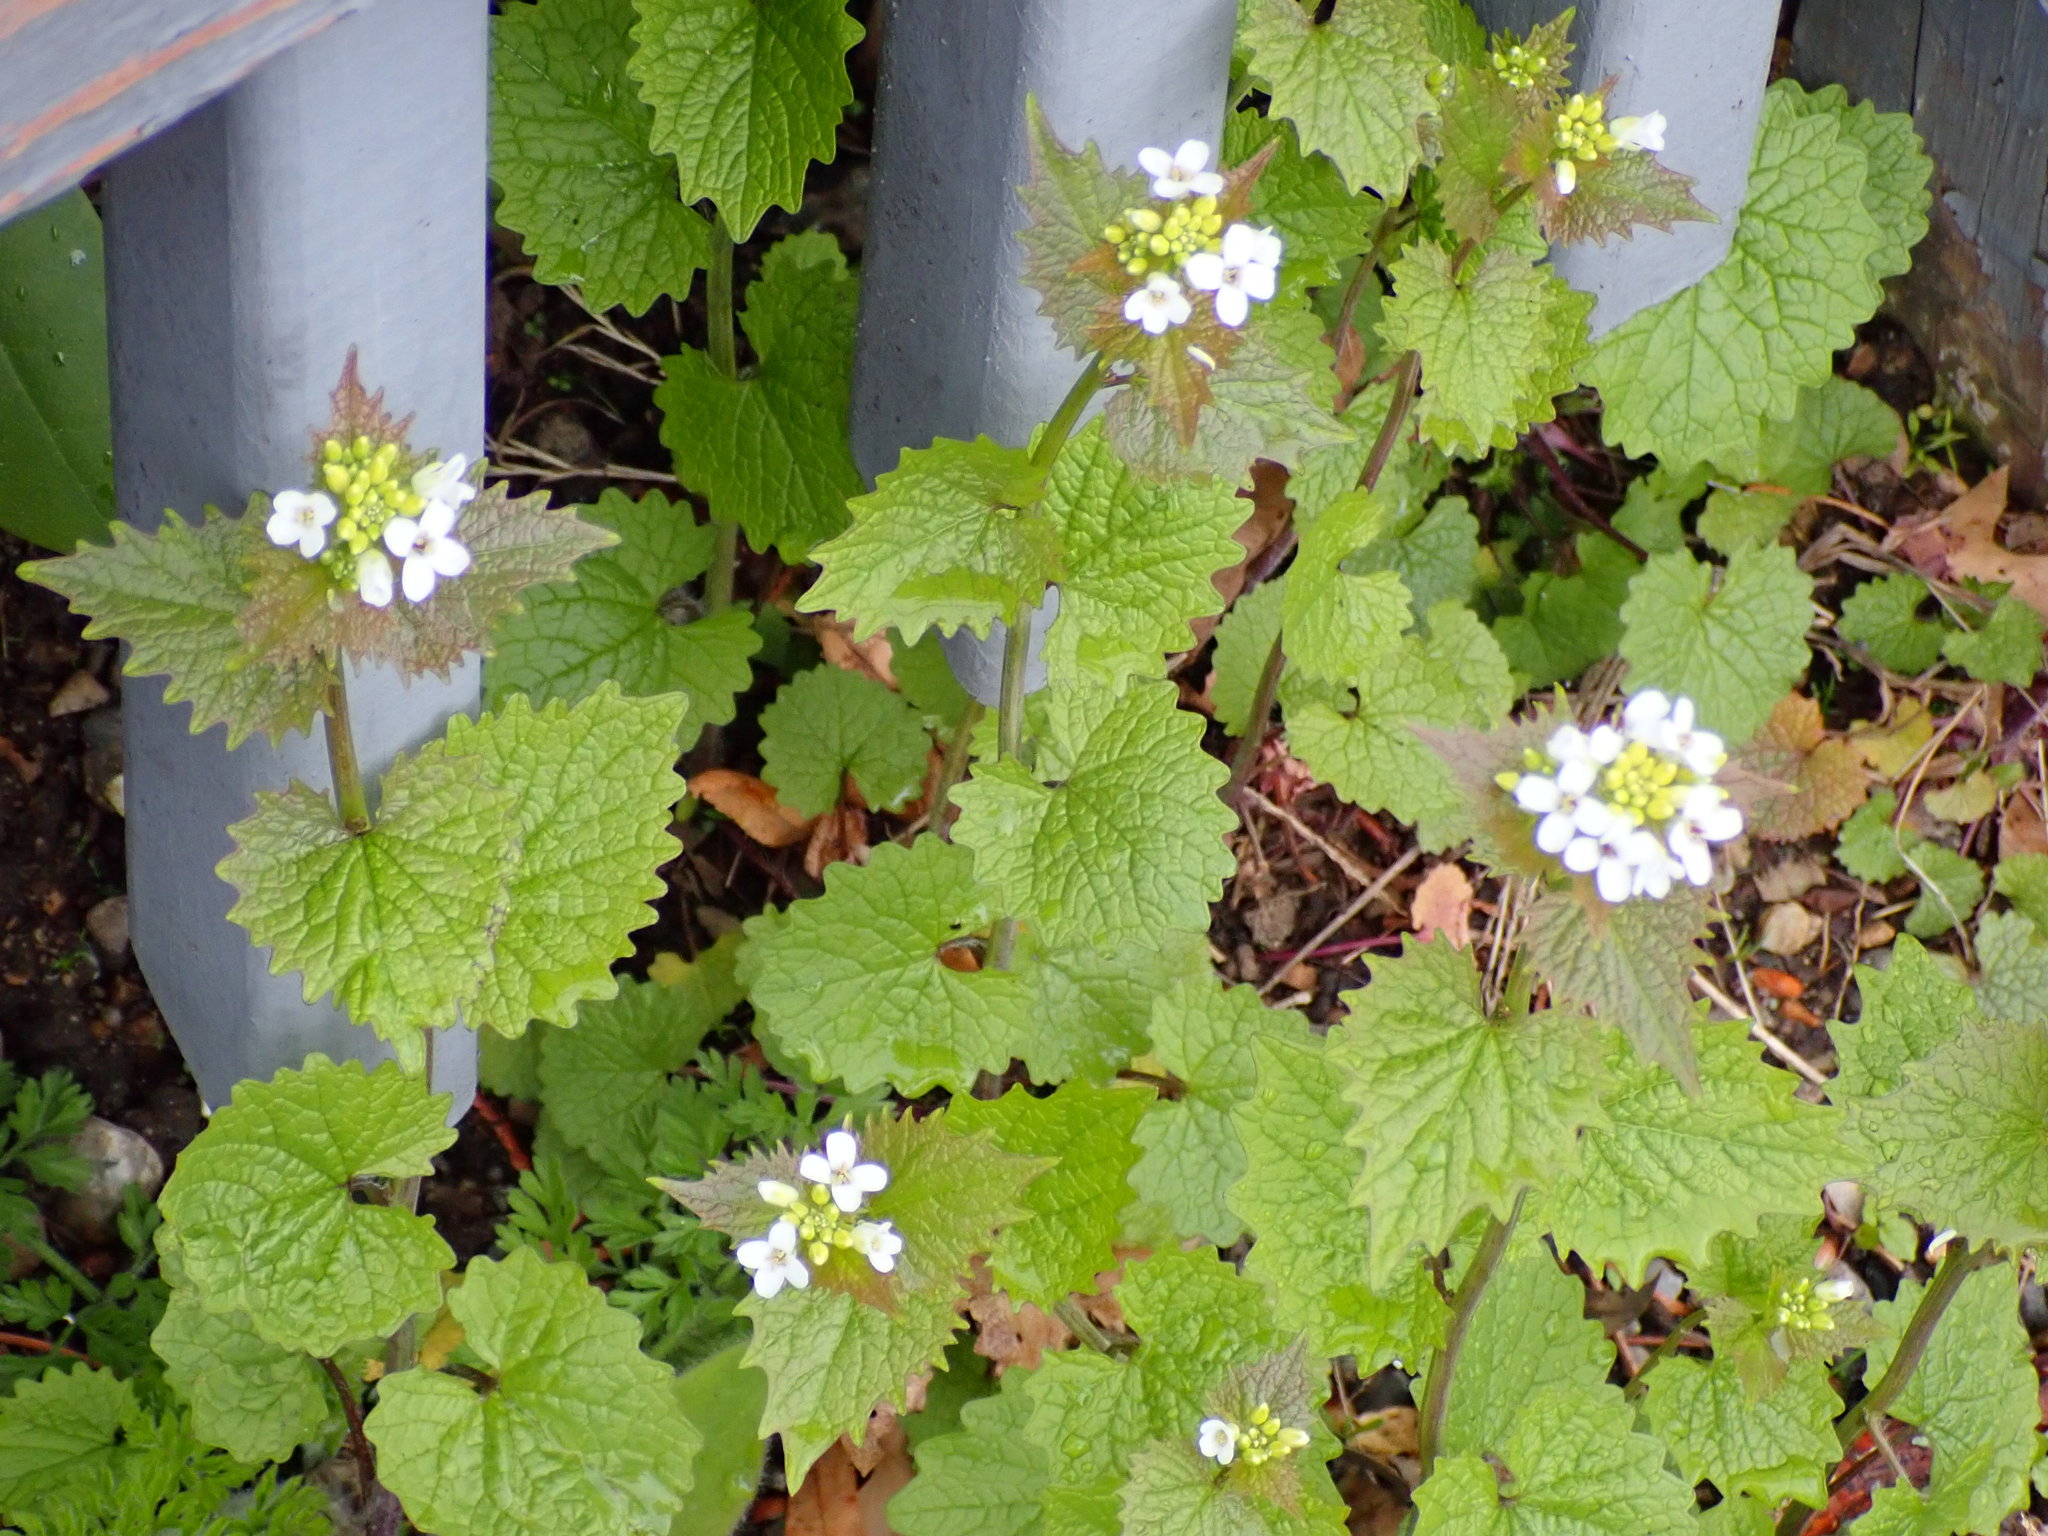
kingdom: Plantae
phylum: Tracheophyta
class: Magnoliopsida
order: Brassicales
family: Brassicaceae
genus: Alliaria
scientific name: Alliaria petiolata
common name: Garlic mustard
